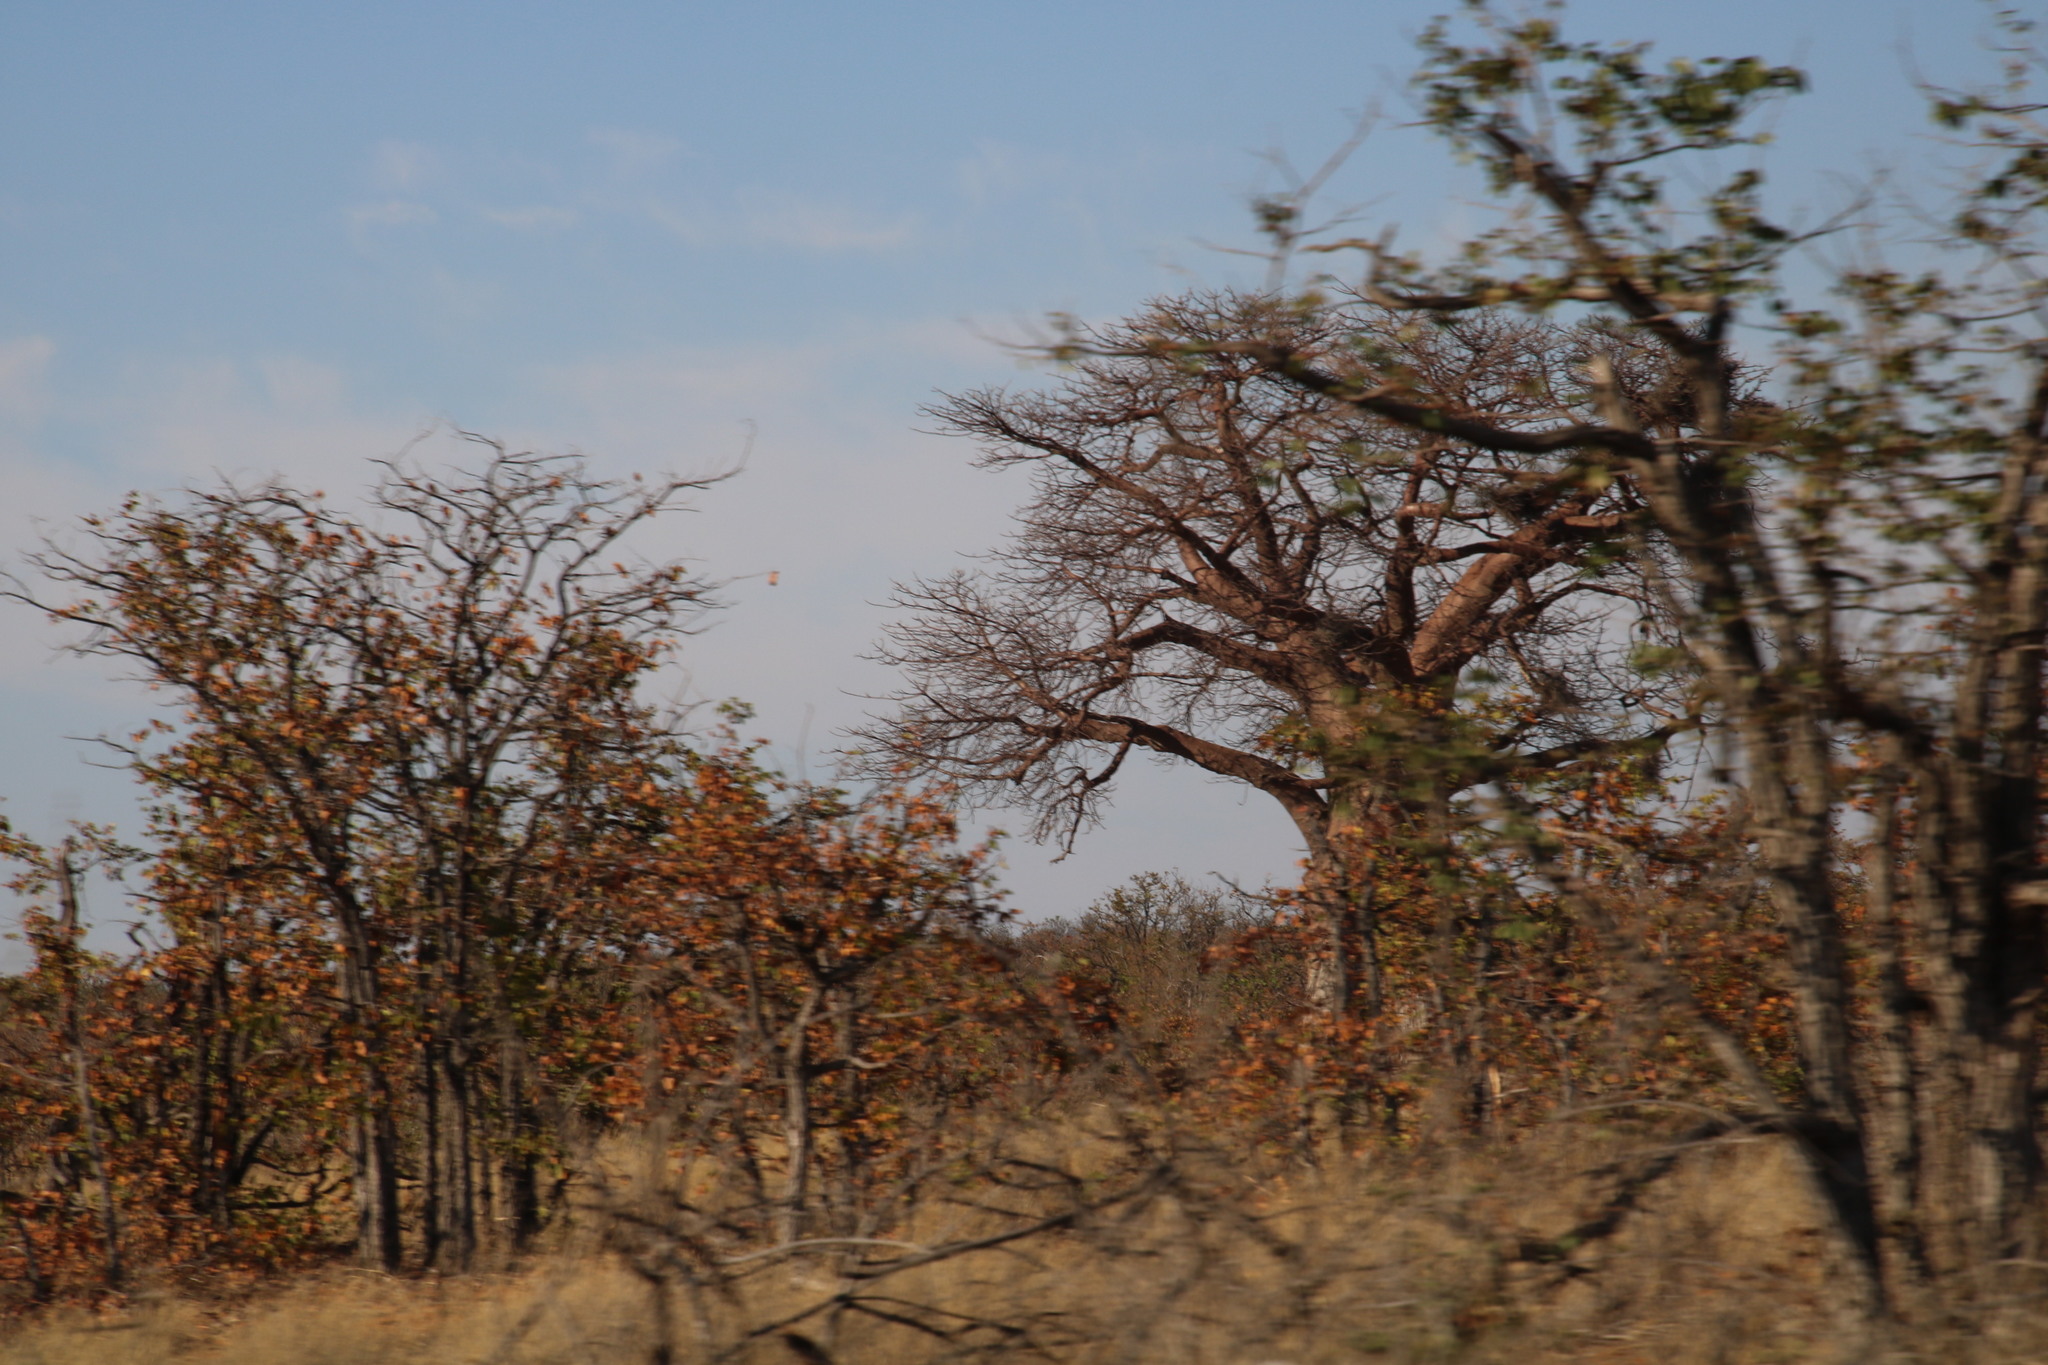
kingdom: Plantae
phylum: Tracheophyta
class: Magnoliopsida
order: Malvales
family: Malvaceae
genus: Adansonia
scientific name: Adansonia digitata
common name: Dead-rat-tree
